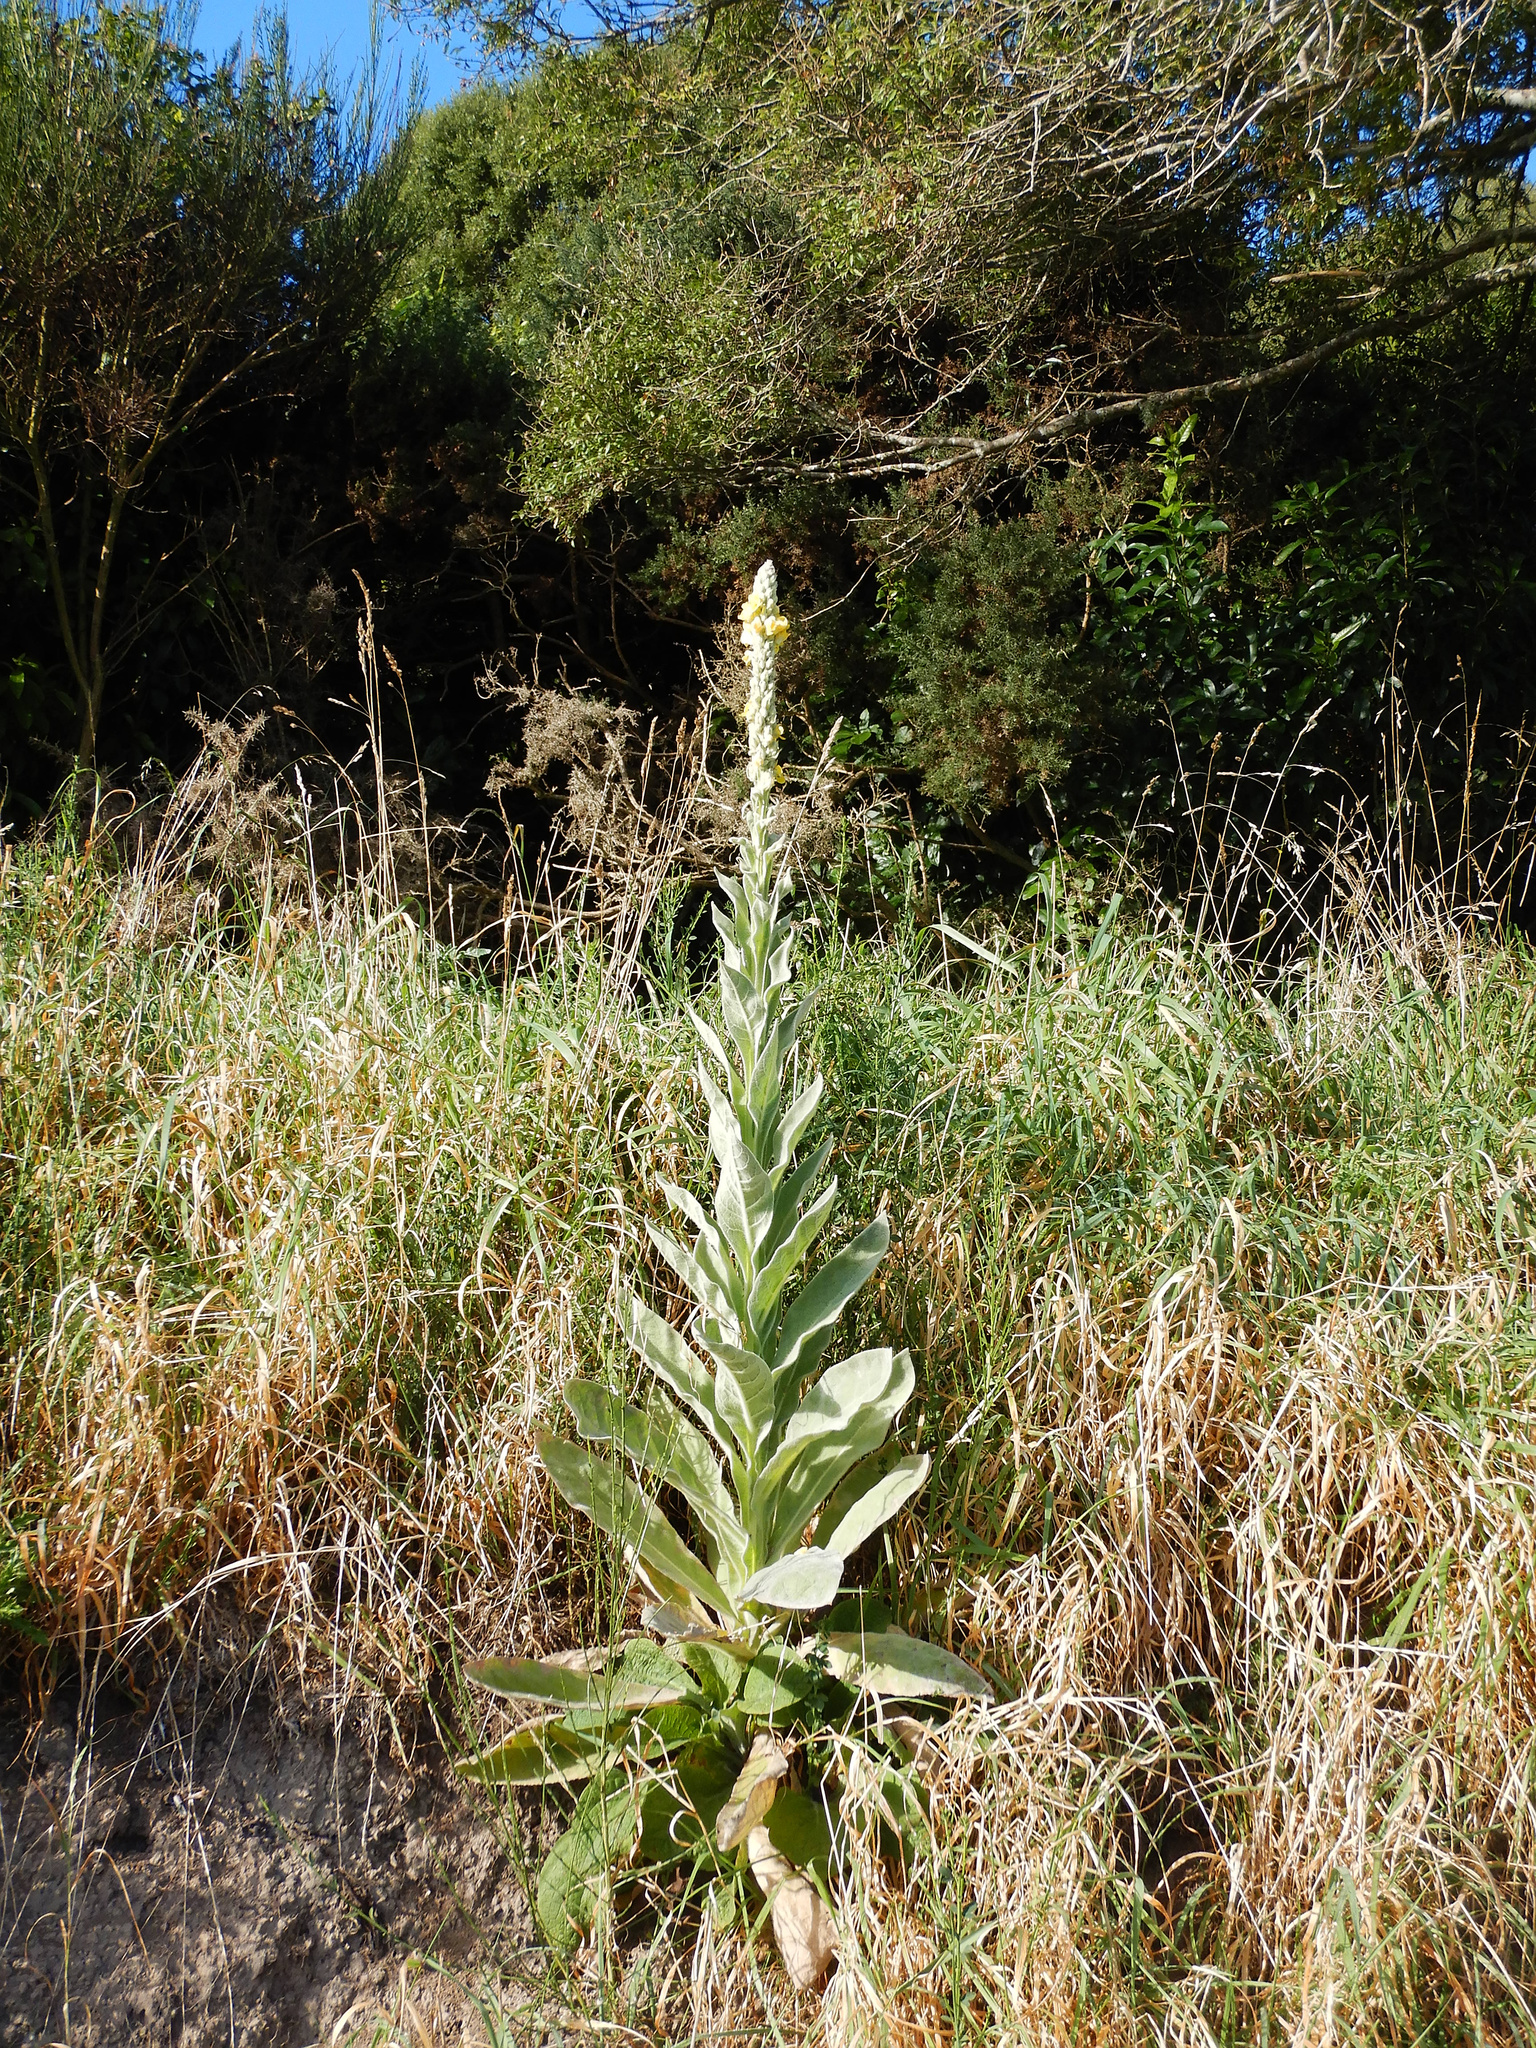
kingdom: Plantae
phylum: Tracheophyta
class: Magnoliopsida
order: Lamiales
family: Scrophulariaceae
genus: Verbascum
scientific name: Verbascum thapsus
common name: Common mullein
